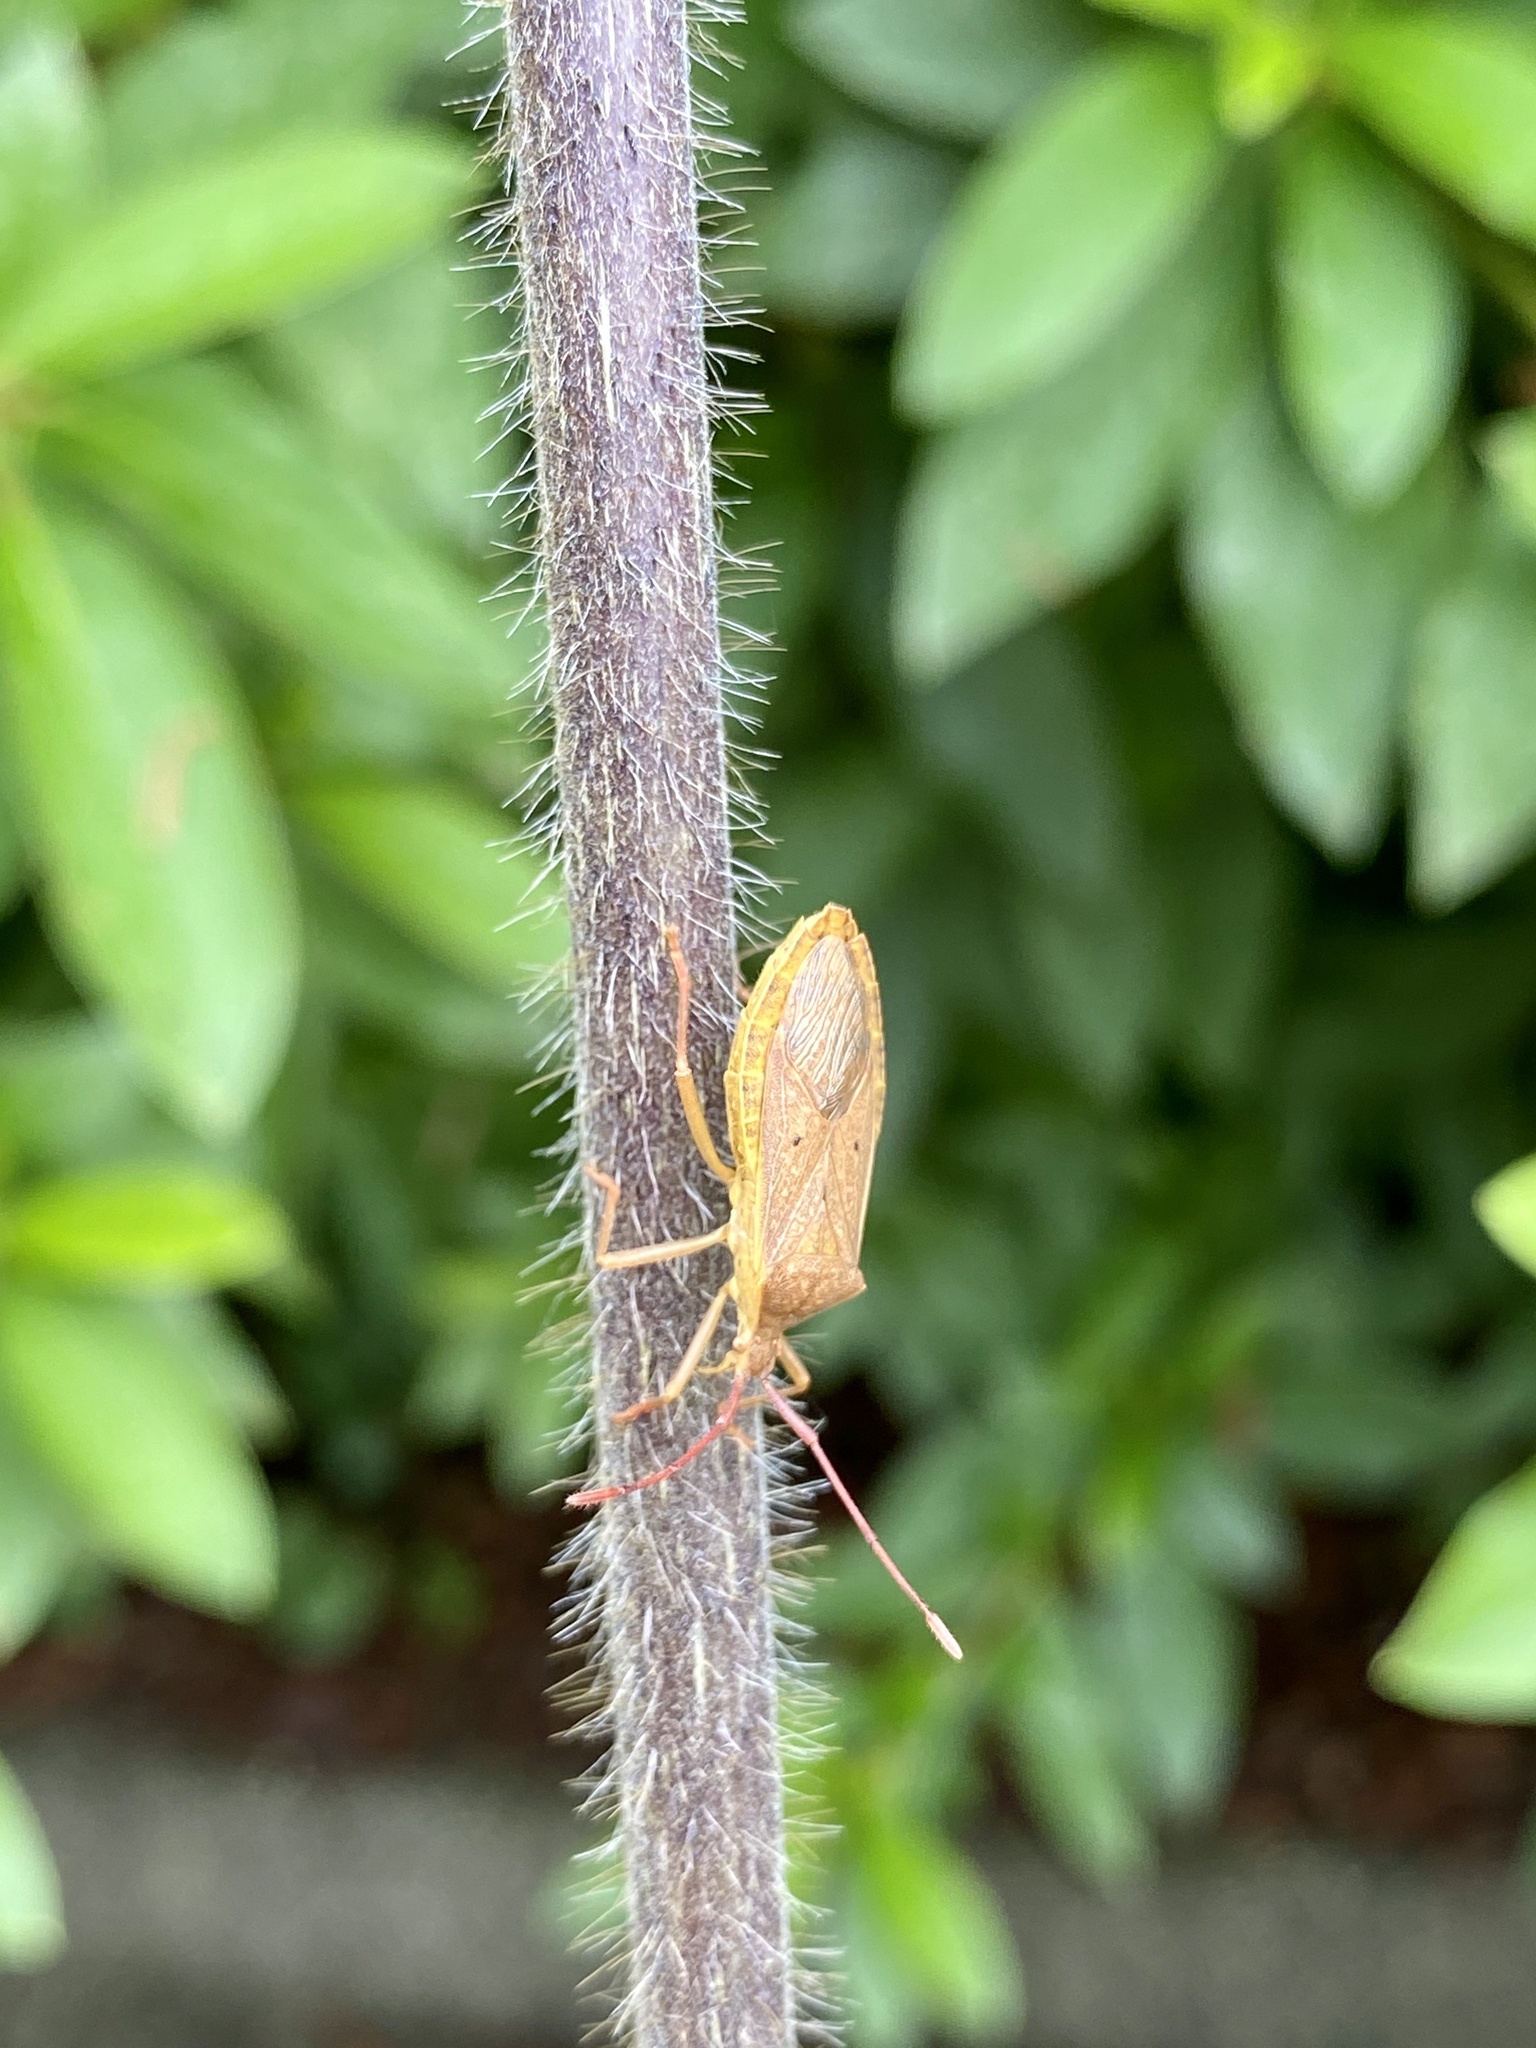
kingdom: Animalia
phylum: Arthropoda
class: Insecta
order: Hemiptera
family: Coreidae
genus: Homoeocerus
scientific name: Homoeocerus unipunctatus
